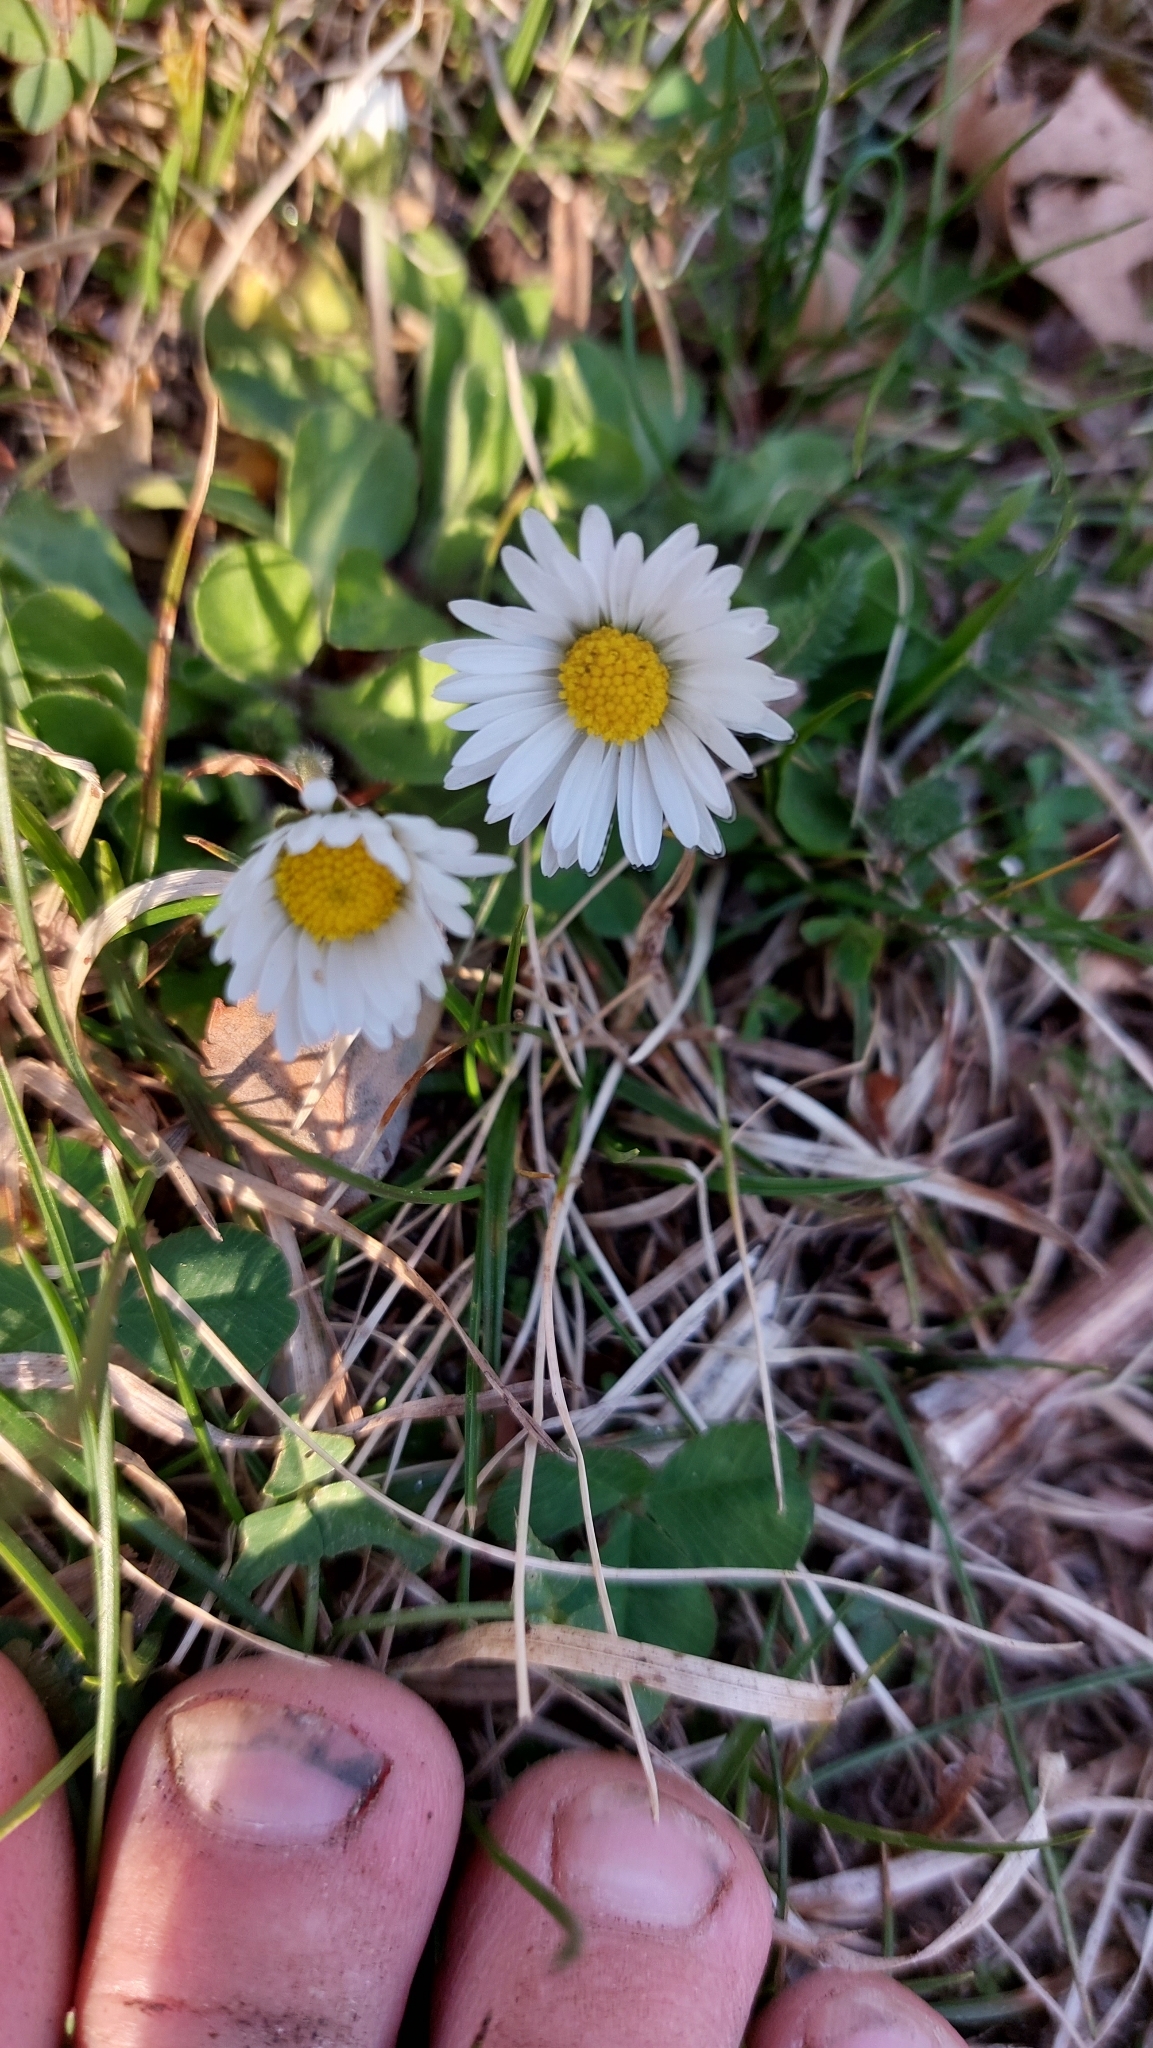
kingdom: Plantae
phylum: Tracheophyta
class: Magnoliopsida
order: Asterales
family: Asteraceae
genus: Bellis
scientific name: Bellis perennis
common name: Lawndaisy
